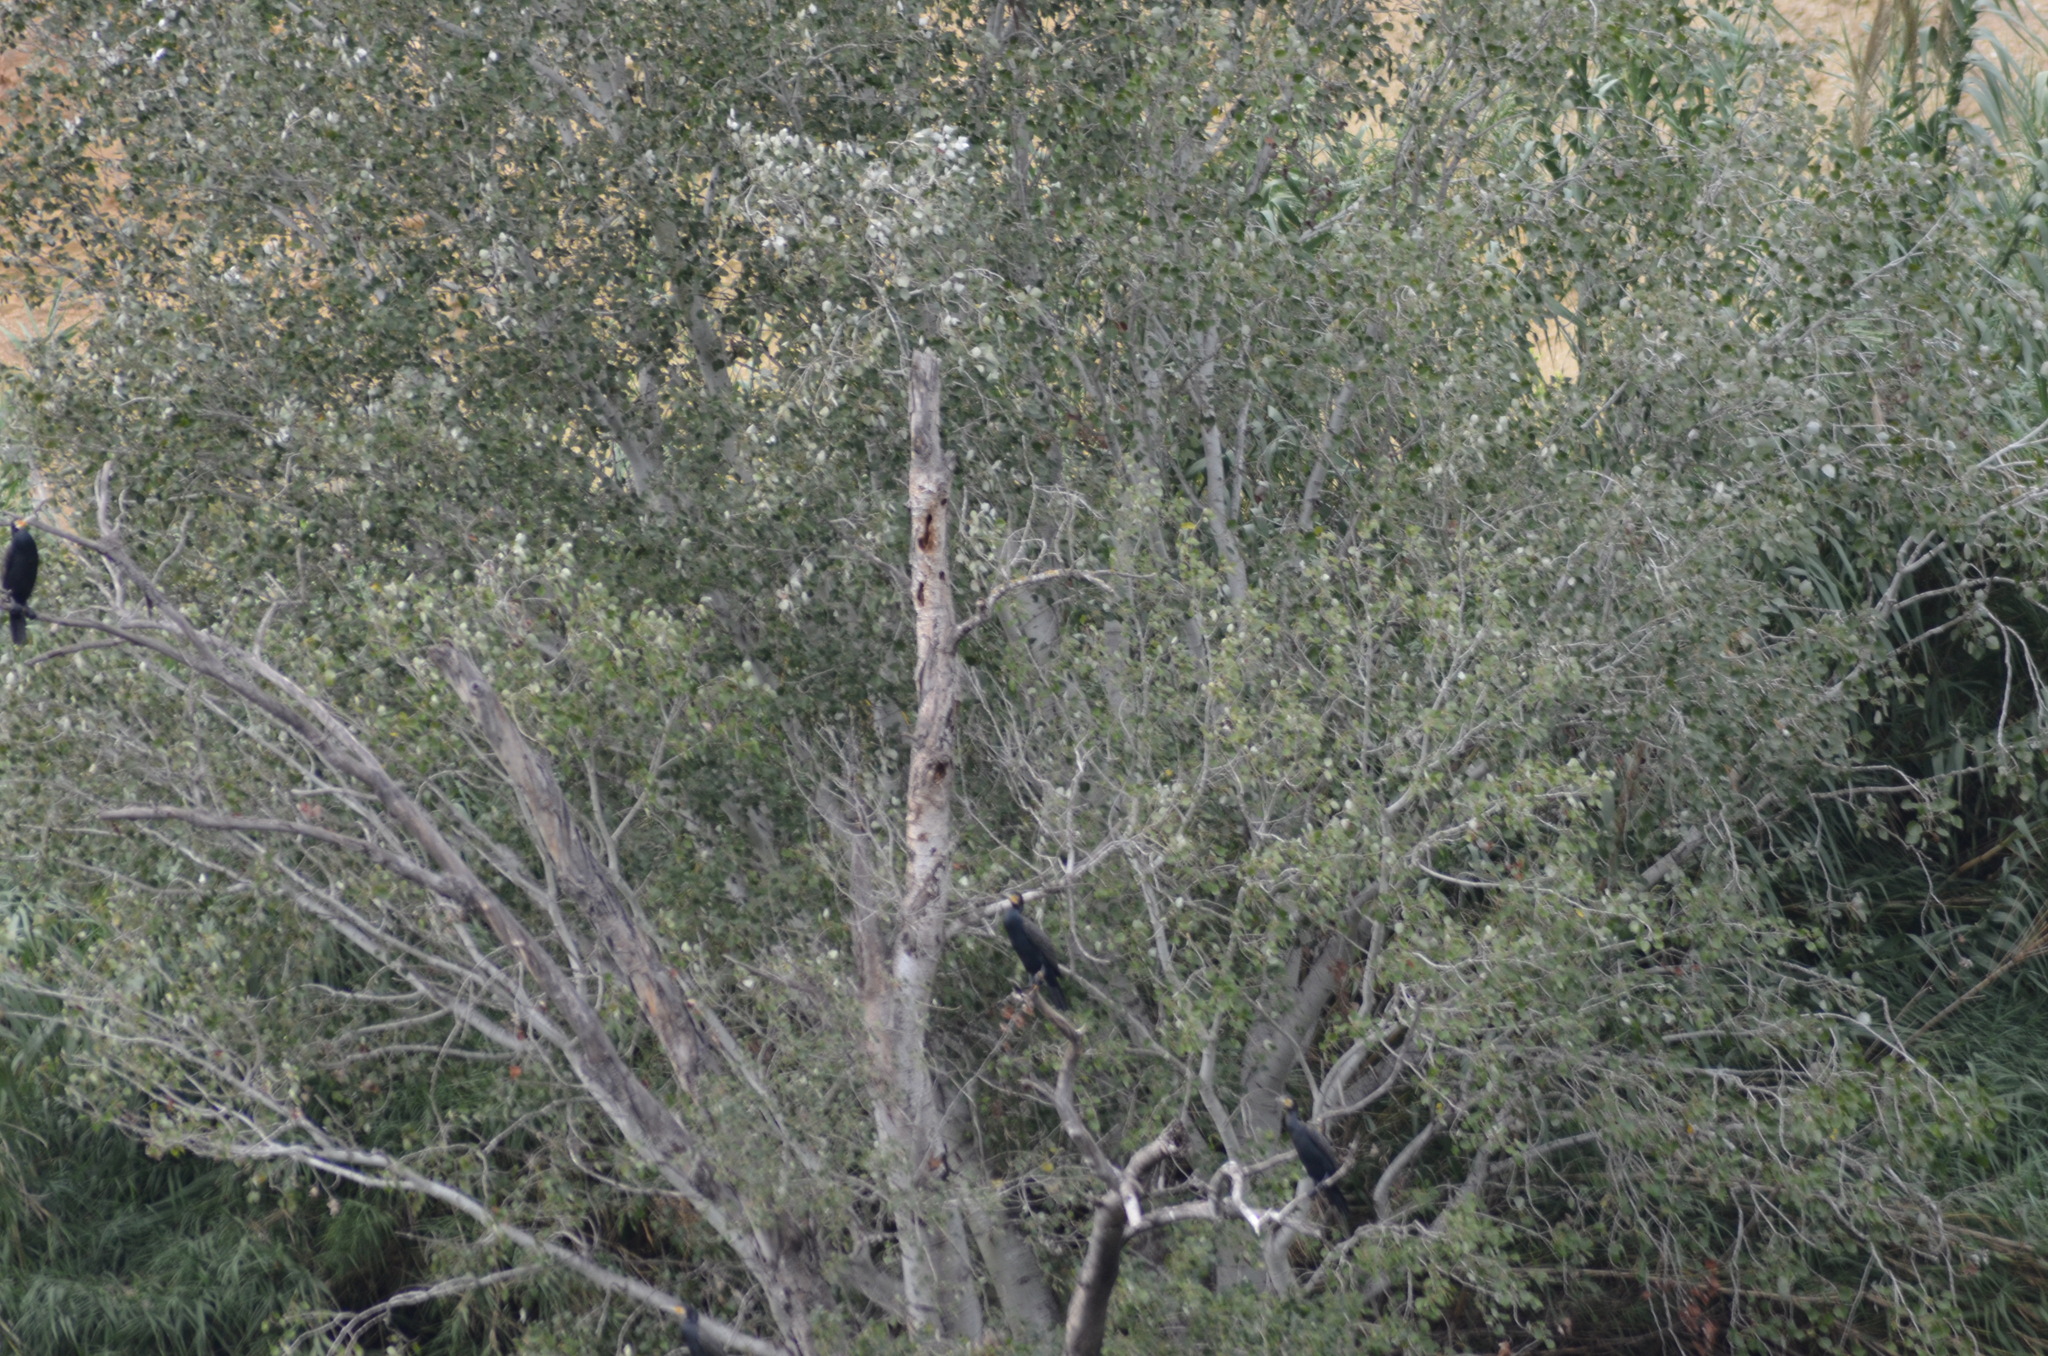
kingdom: Animalia
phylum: Chordata
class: Aves
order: Suliformes
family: Phalacrocoracidae
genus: Phalacrocorax
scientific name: Phalacrocorax carbo
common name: Great cormorant
